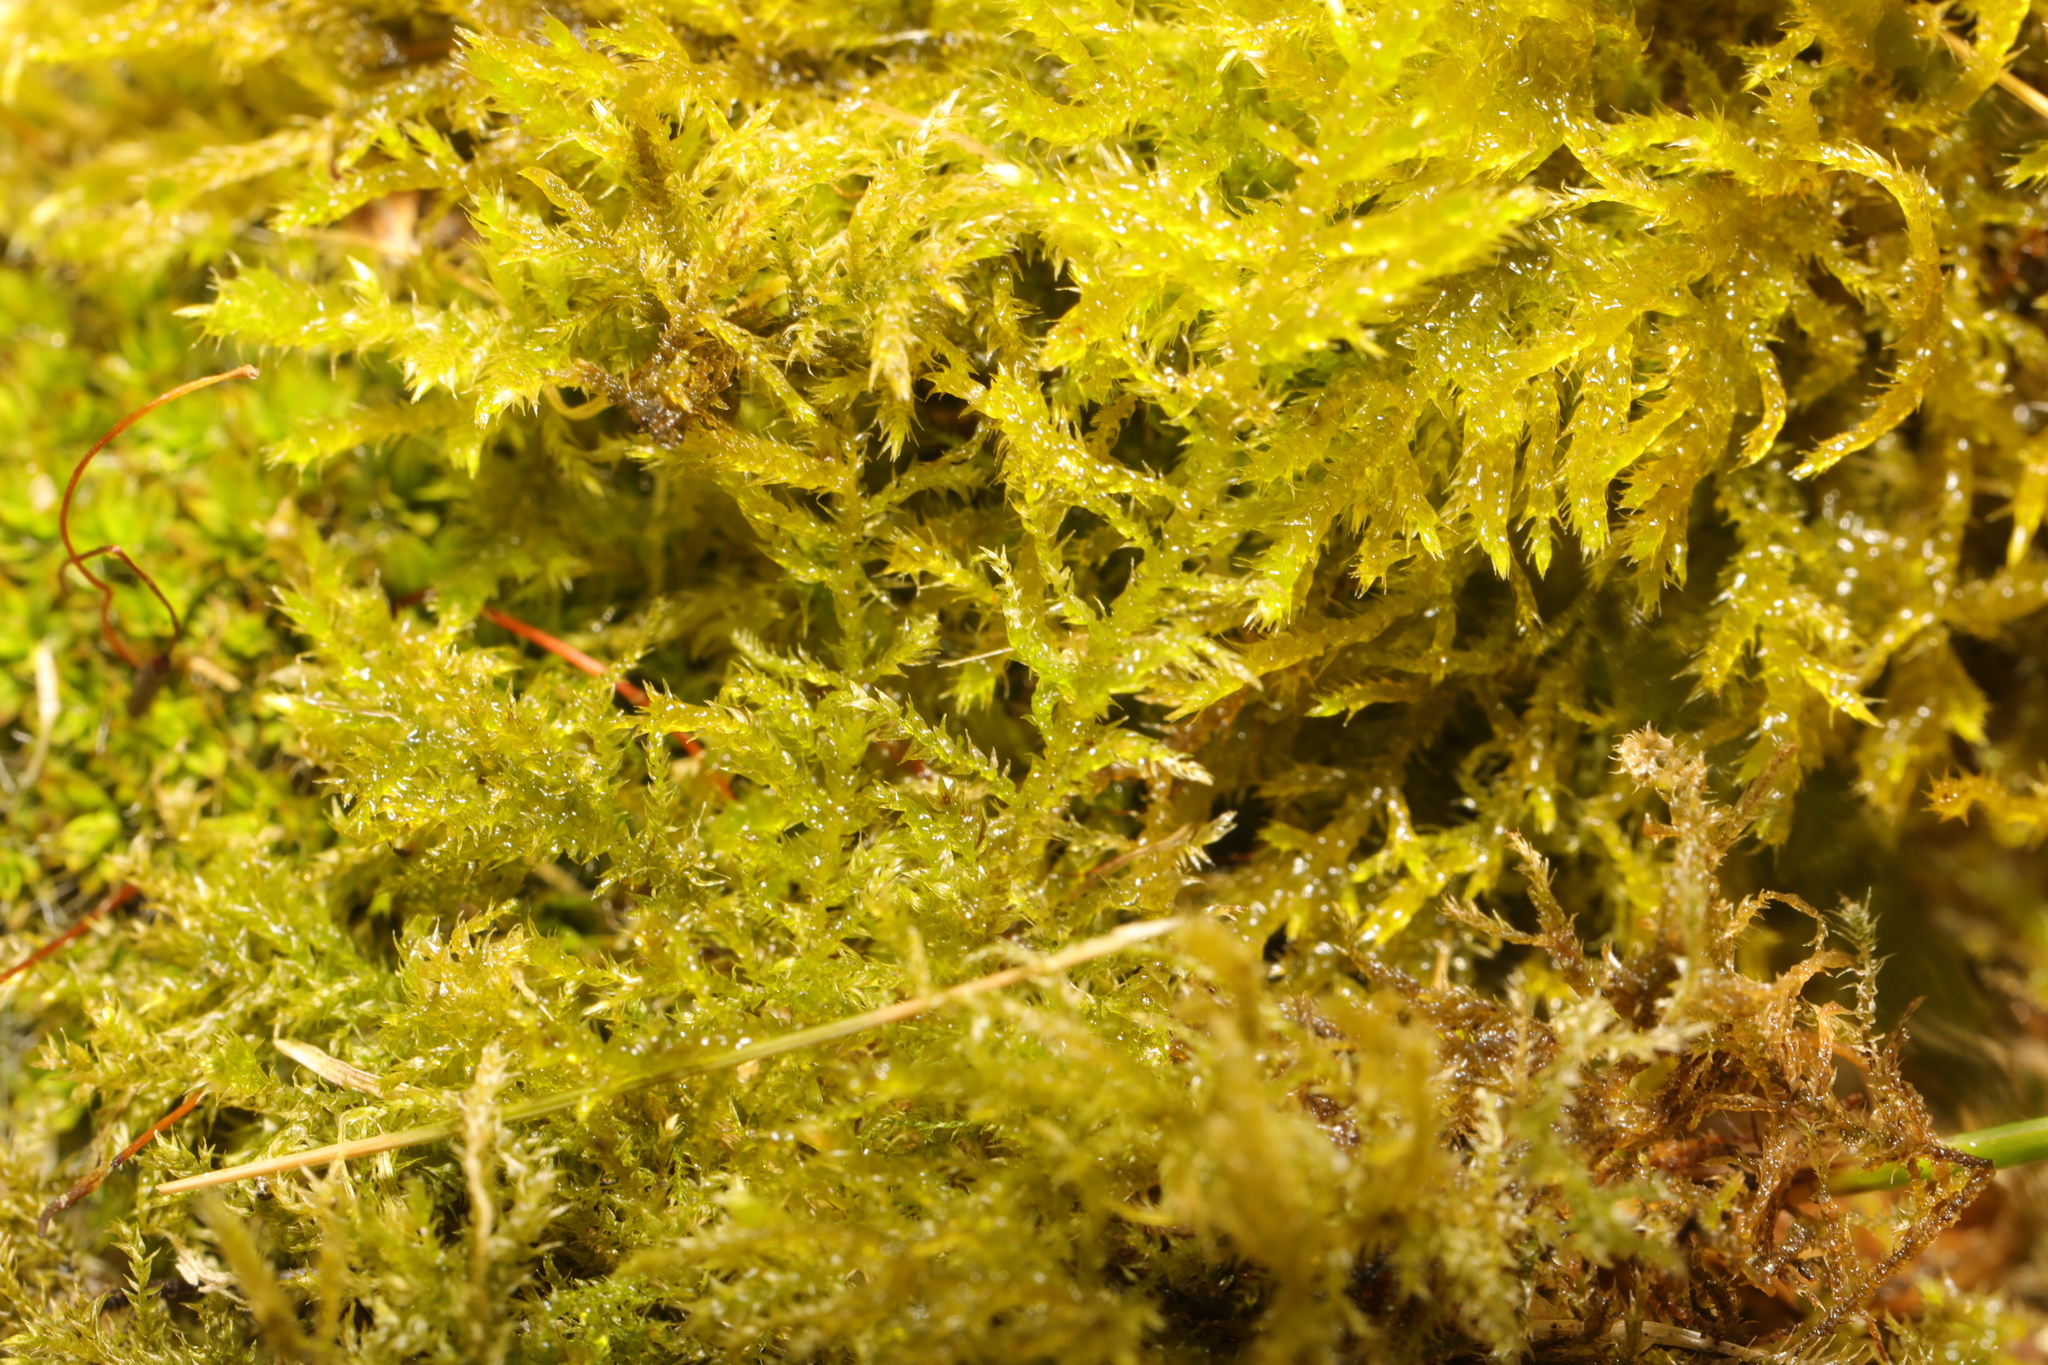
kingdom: Plantae
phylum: Bryophyta
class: Bryopsida
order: Hypnales
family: Brachytheciaceae
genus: Kindbergia
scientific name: Kindbergia praelonga
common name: Slender beaked moss
